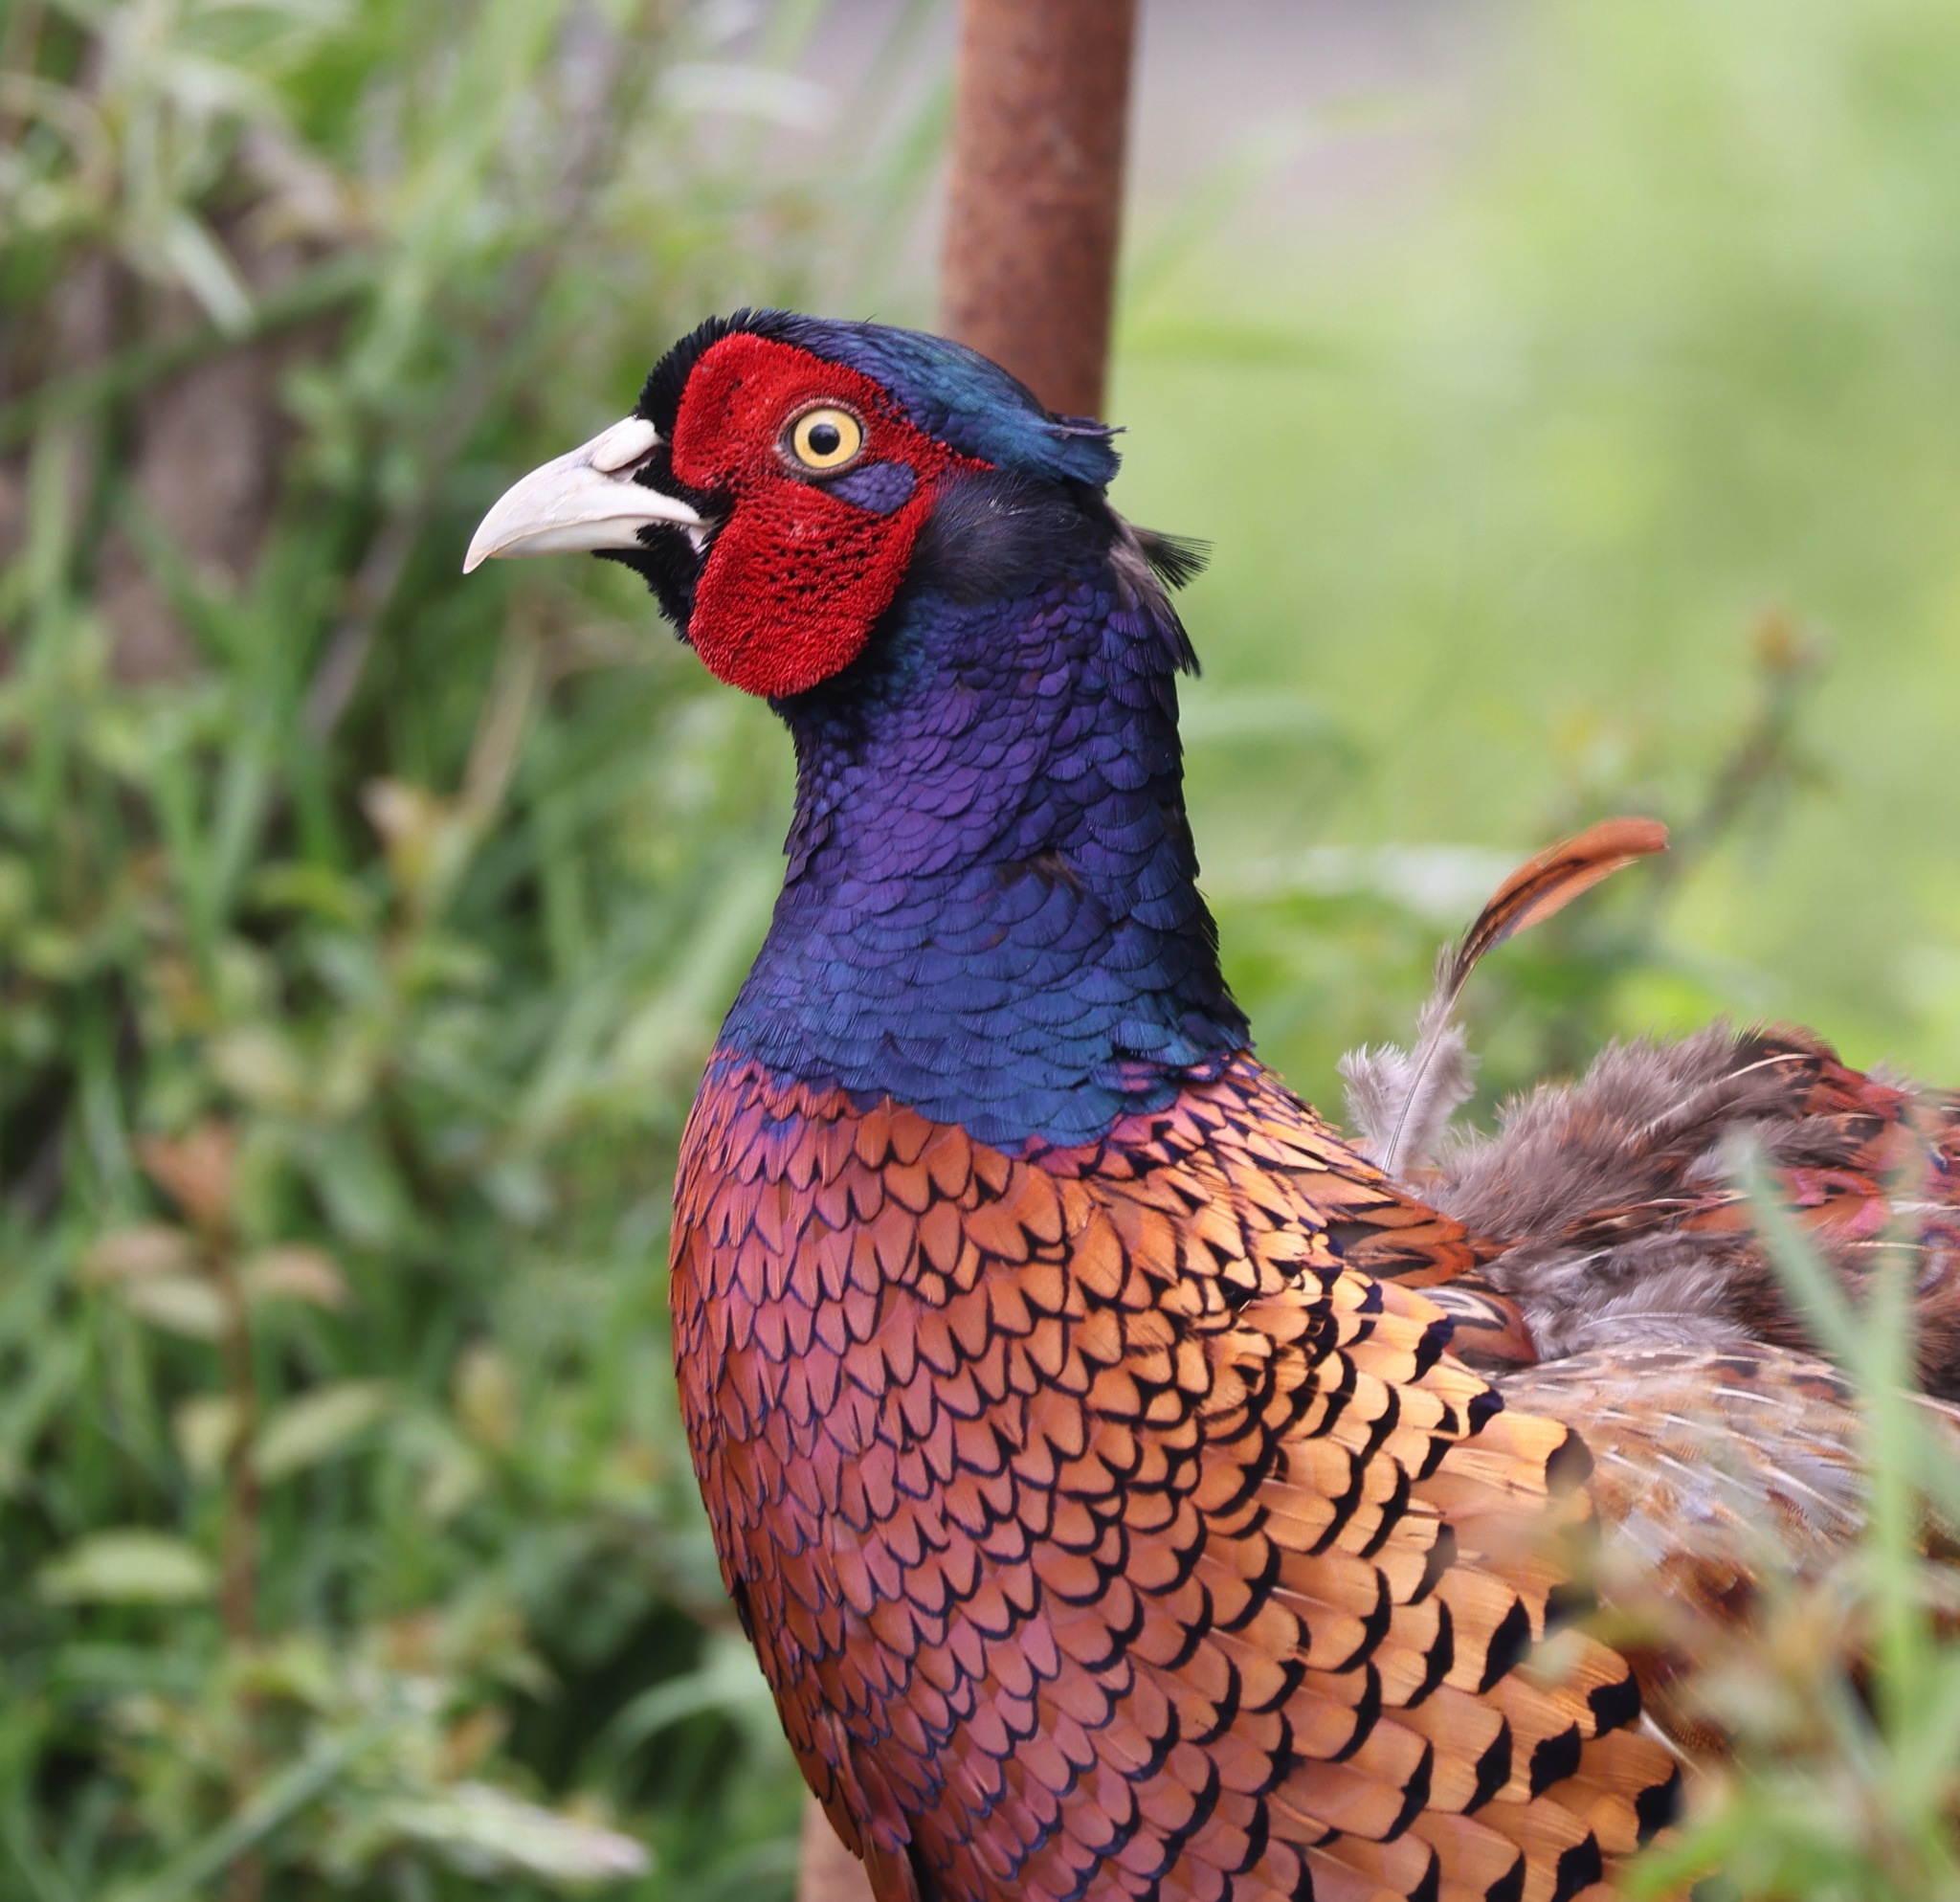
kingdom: Animalia
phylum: Chordata
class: Aves
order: Galliformes
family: Phasianidae
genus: Phasianus
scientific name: Phasianus colchicus
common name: Common pheasant
